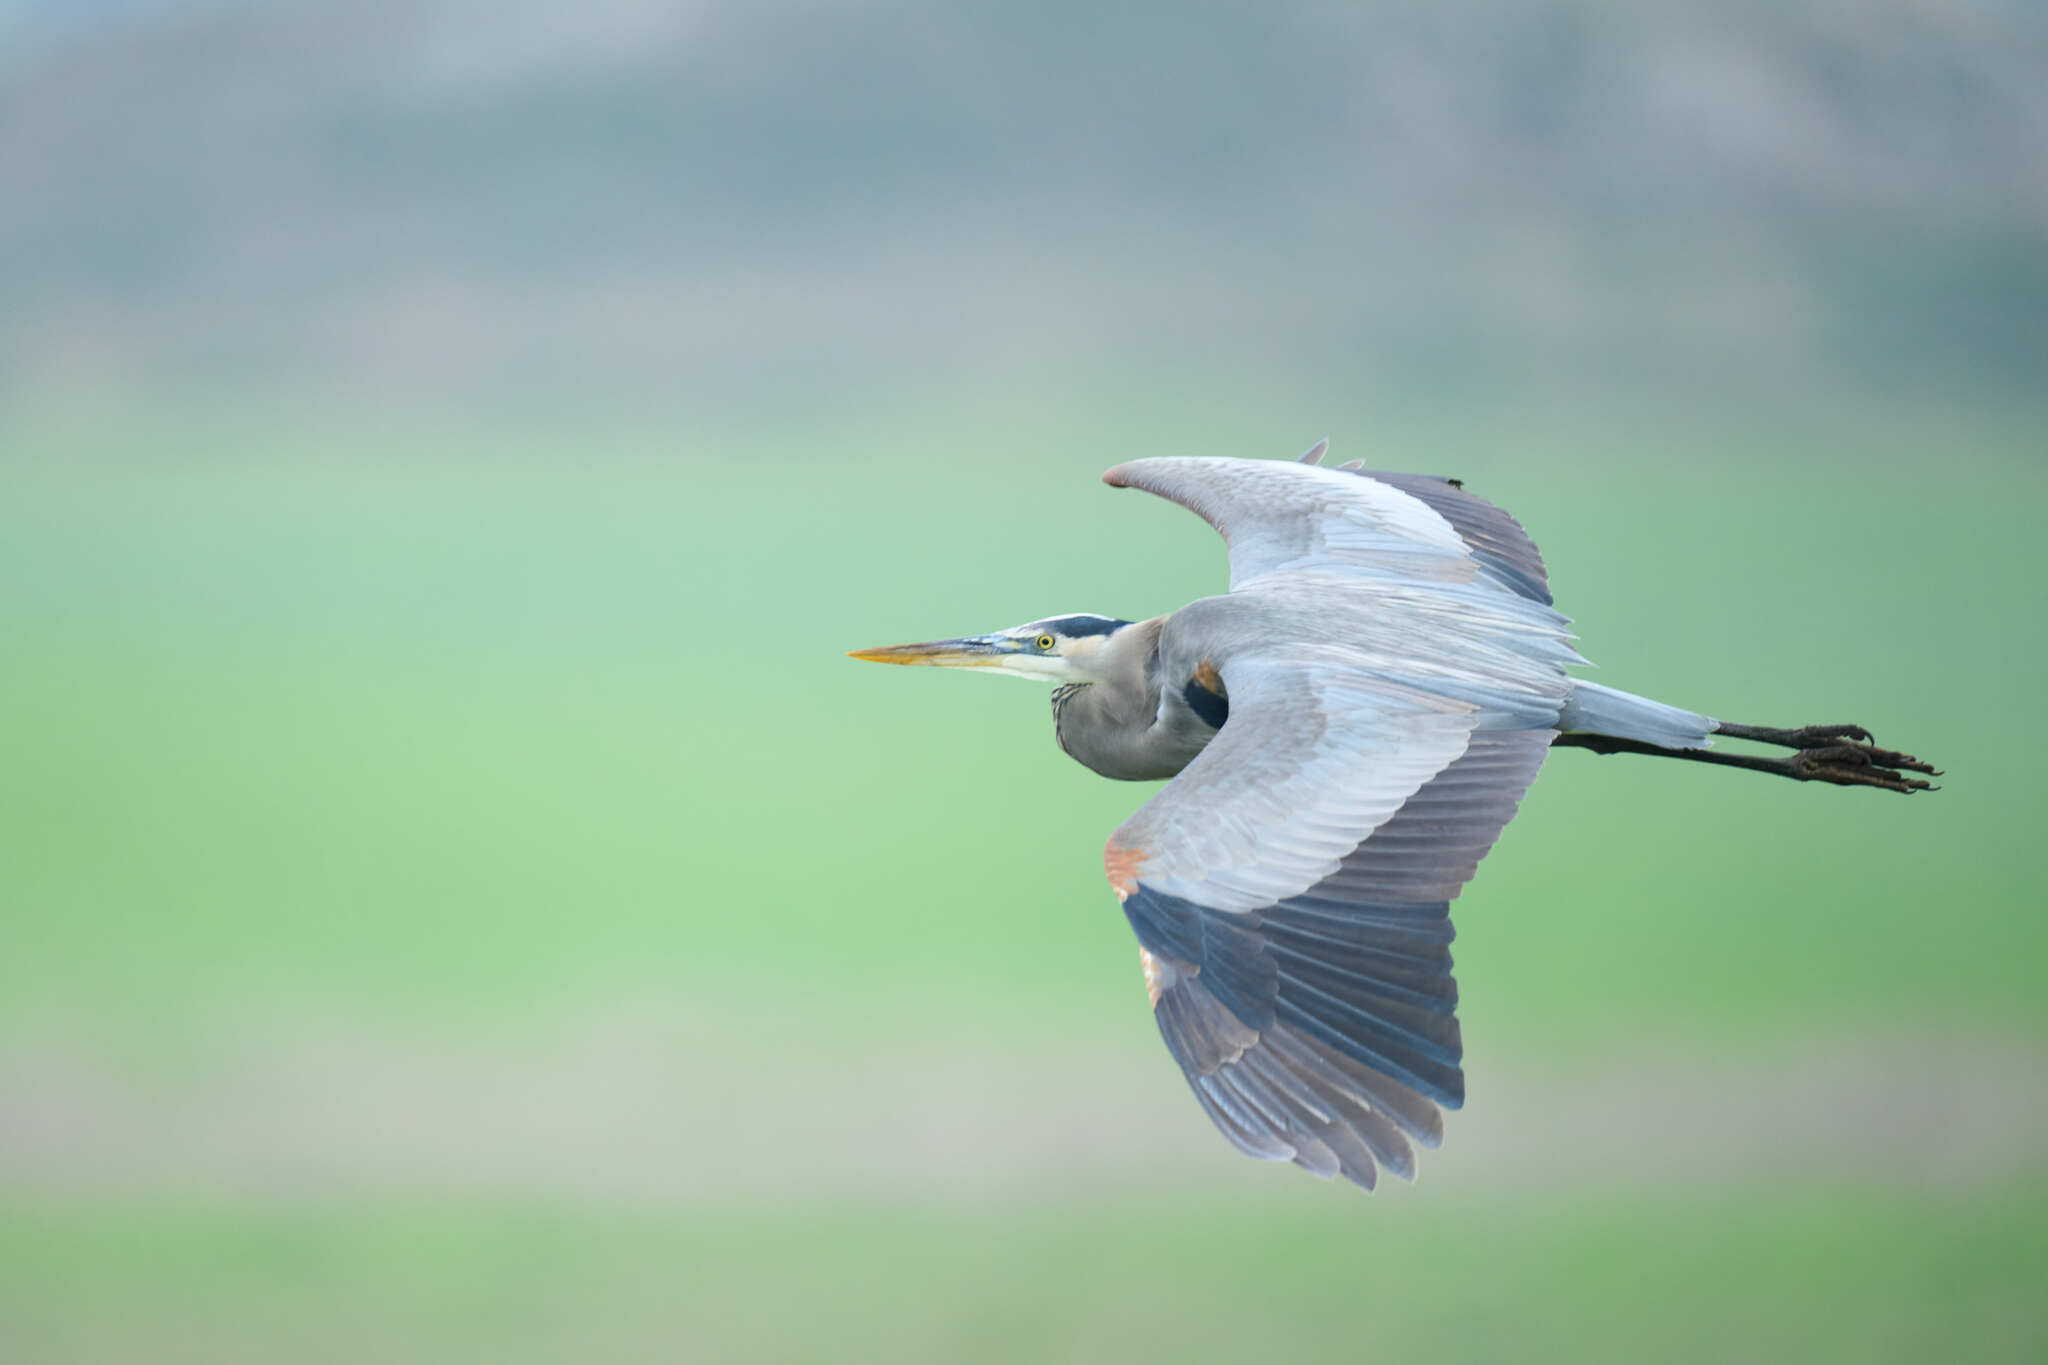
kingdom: Animalia
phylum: Chordata
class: Aves
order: Pelecaniformes
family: Ardeidae
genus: Ardea
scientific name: Ardea herodias
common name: Great blue heron
